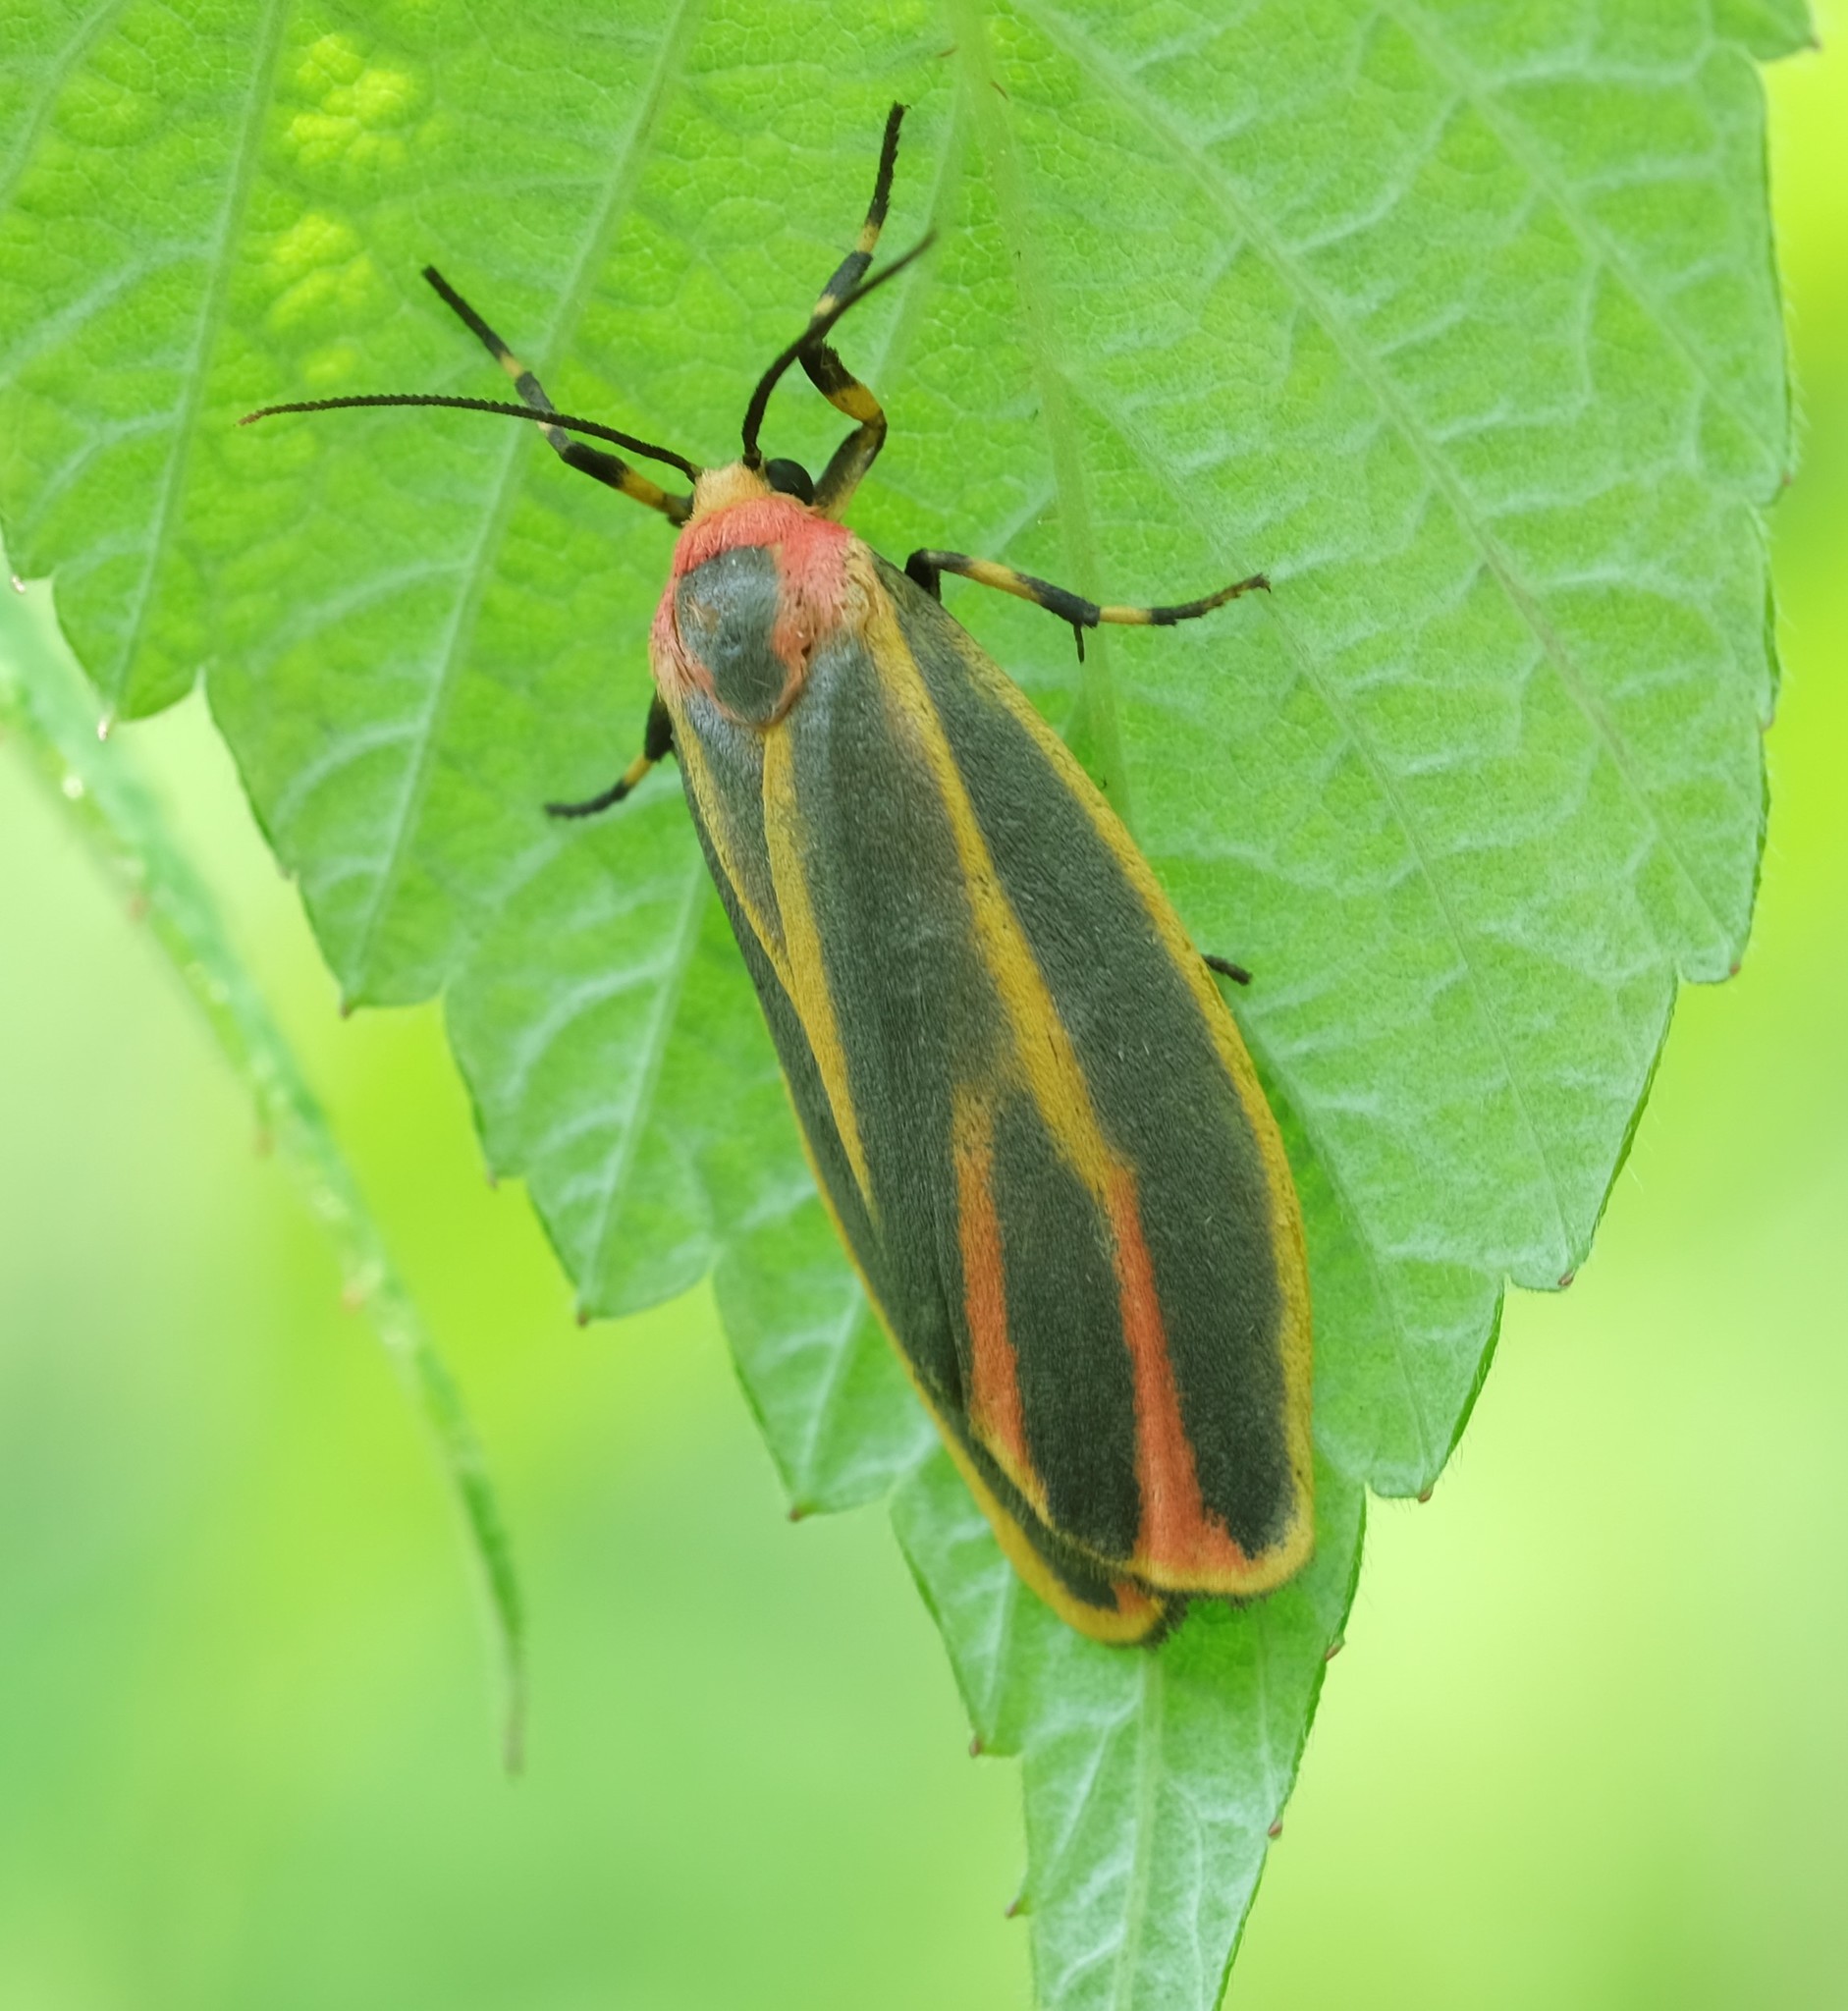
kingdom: Animalia
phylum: Arthropoda
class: Insecta
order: Lepidoptera
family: Erebidae
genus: Hypoprepia
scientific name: Hypoprepia fucosa
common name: Painted lichen moth
